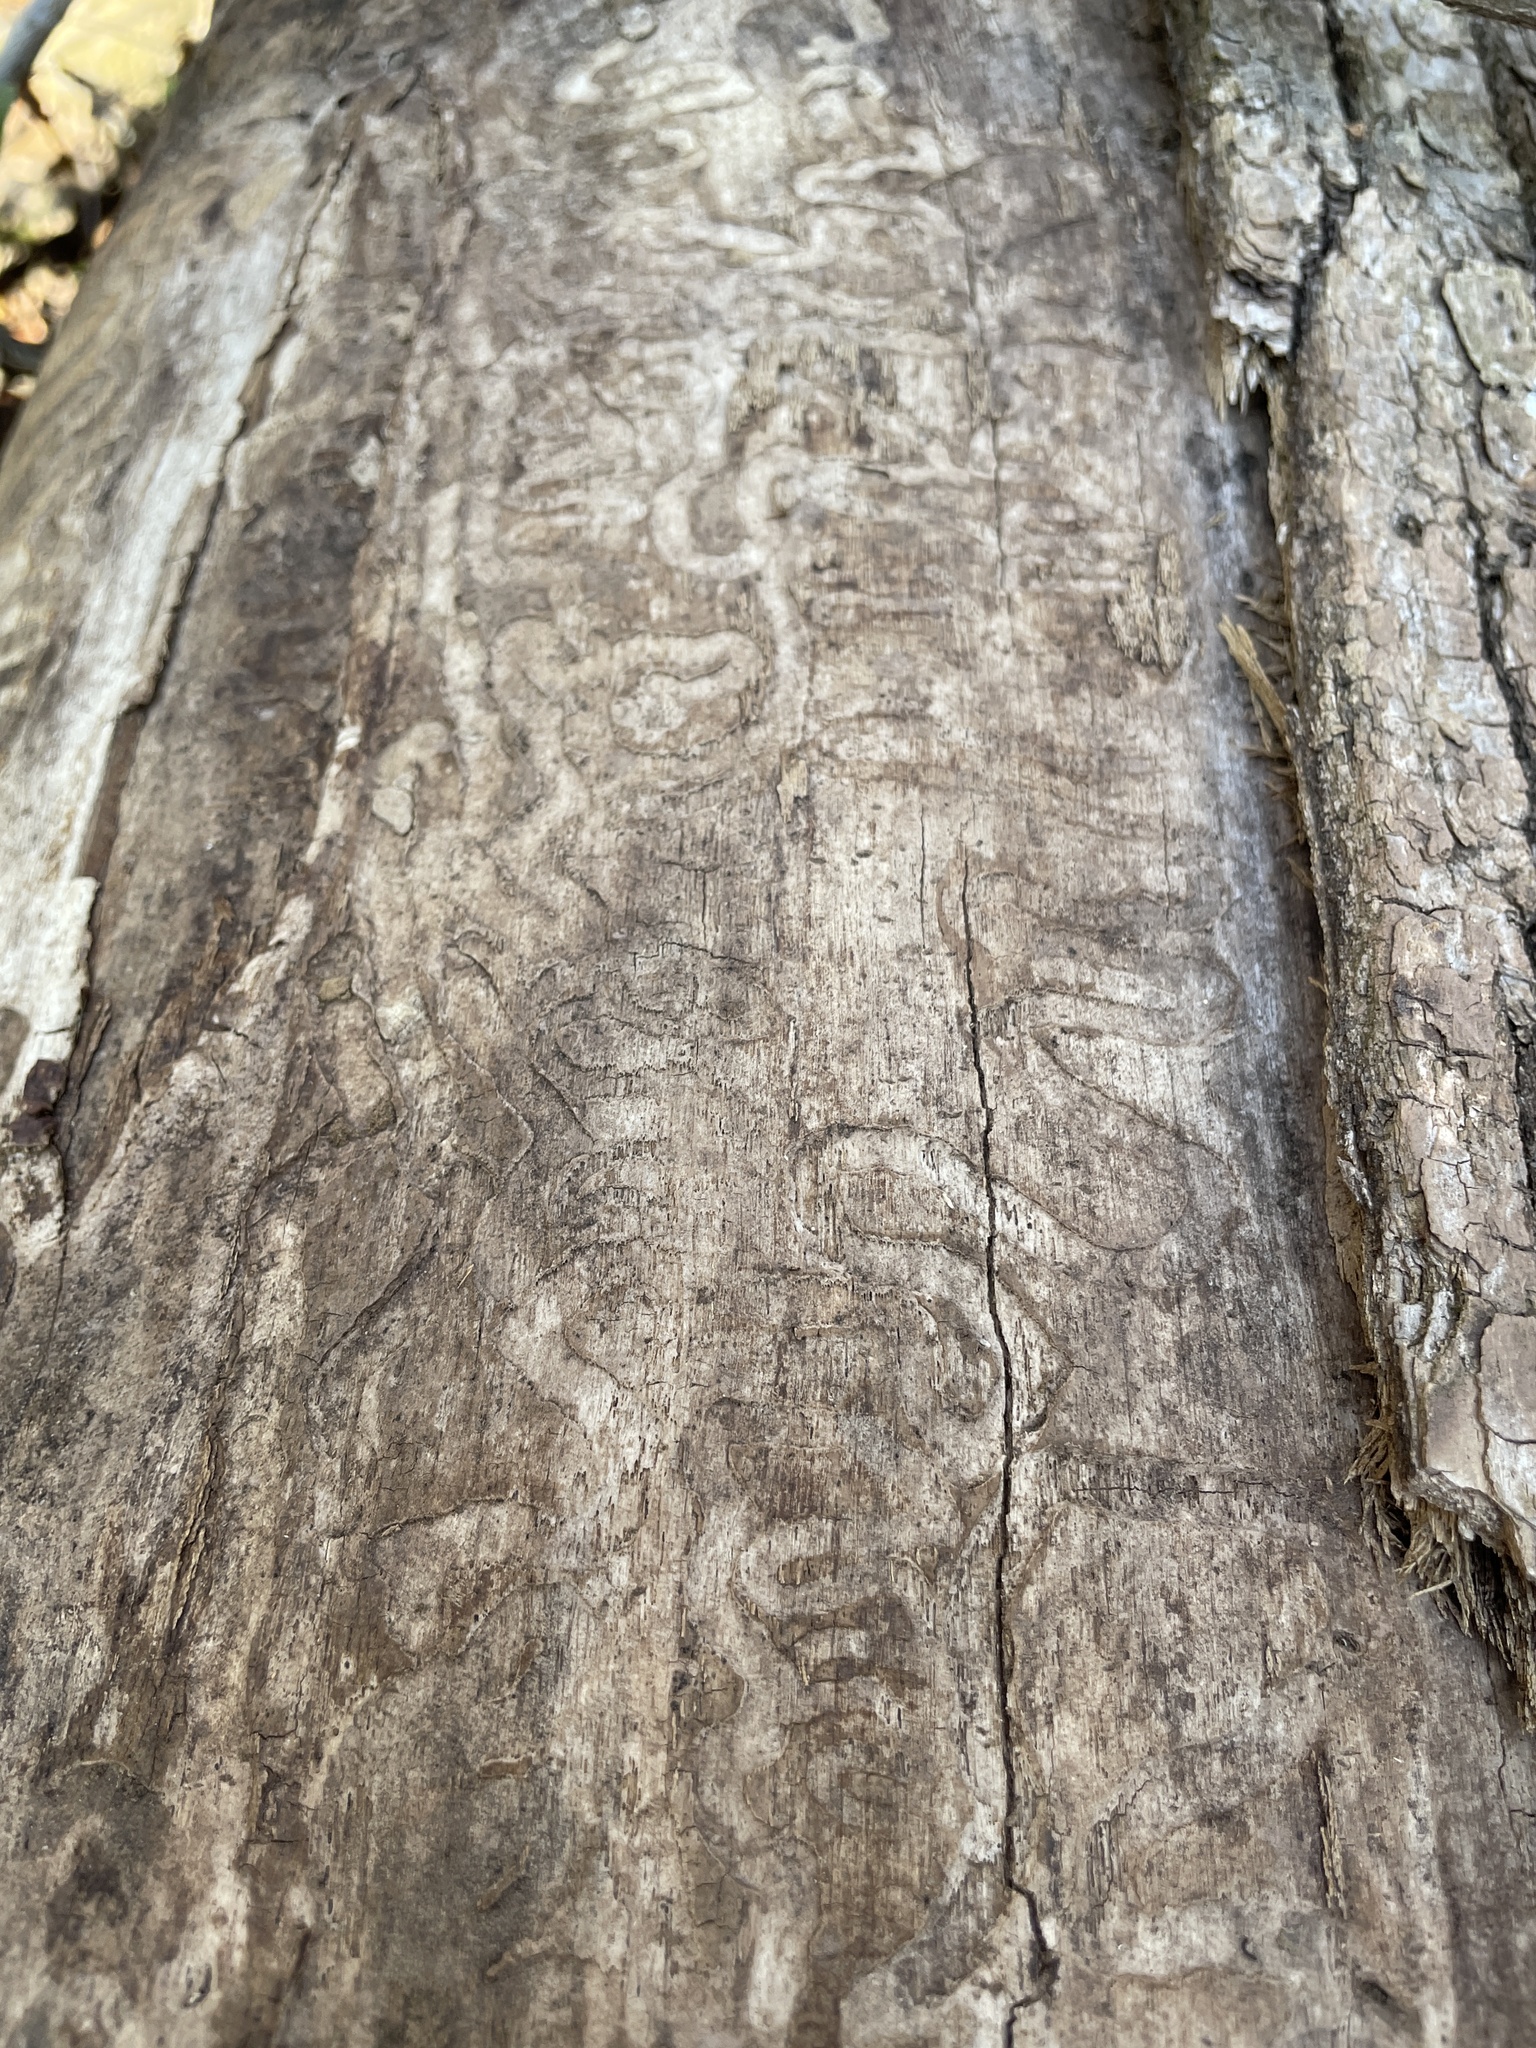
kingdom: Animalia
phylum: Arthropoda
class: Insecta
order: Coleoptera
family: Buprestidae
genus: Agrilus
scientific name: Agrilus planipennis
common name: Emerald ash borer
